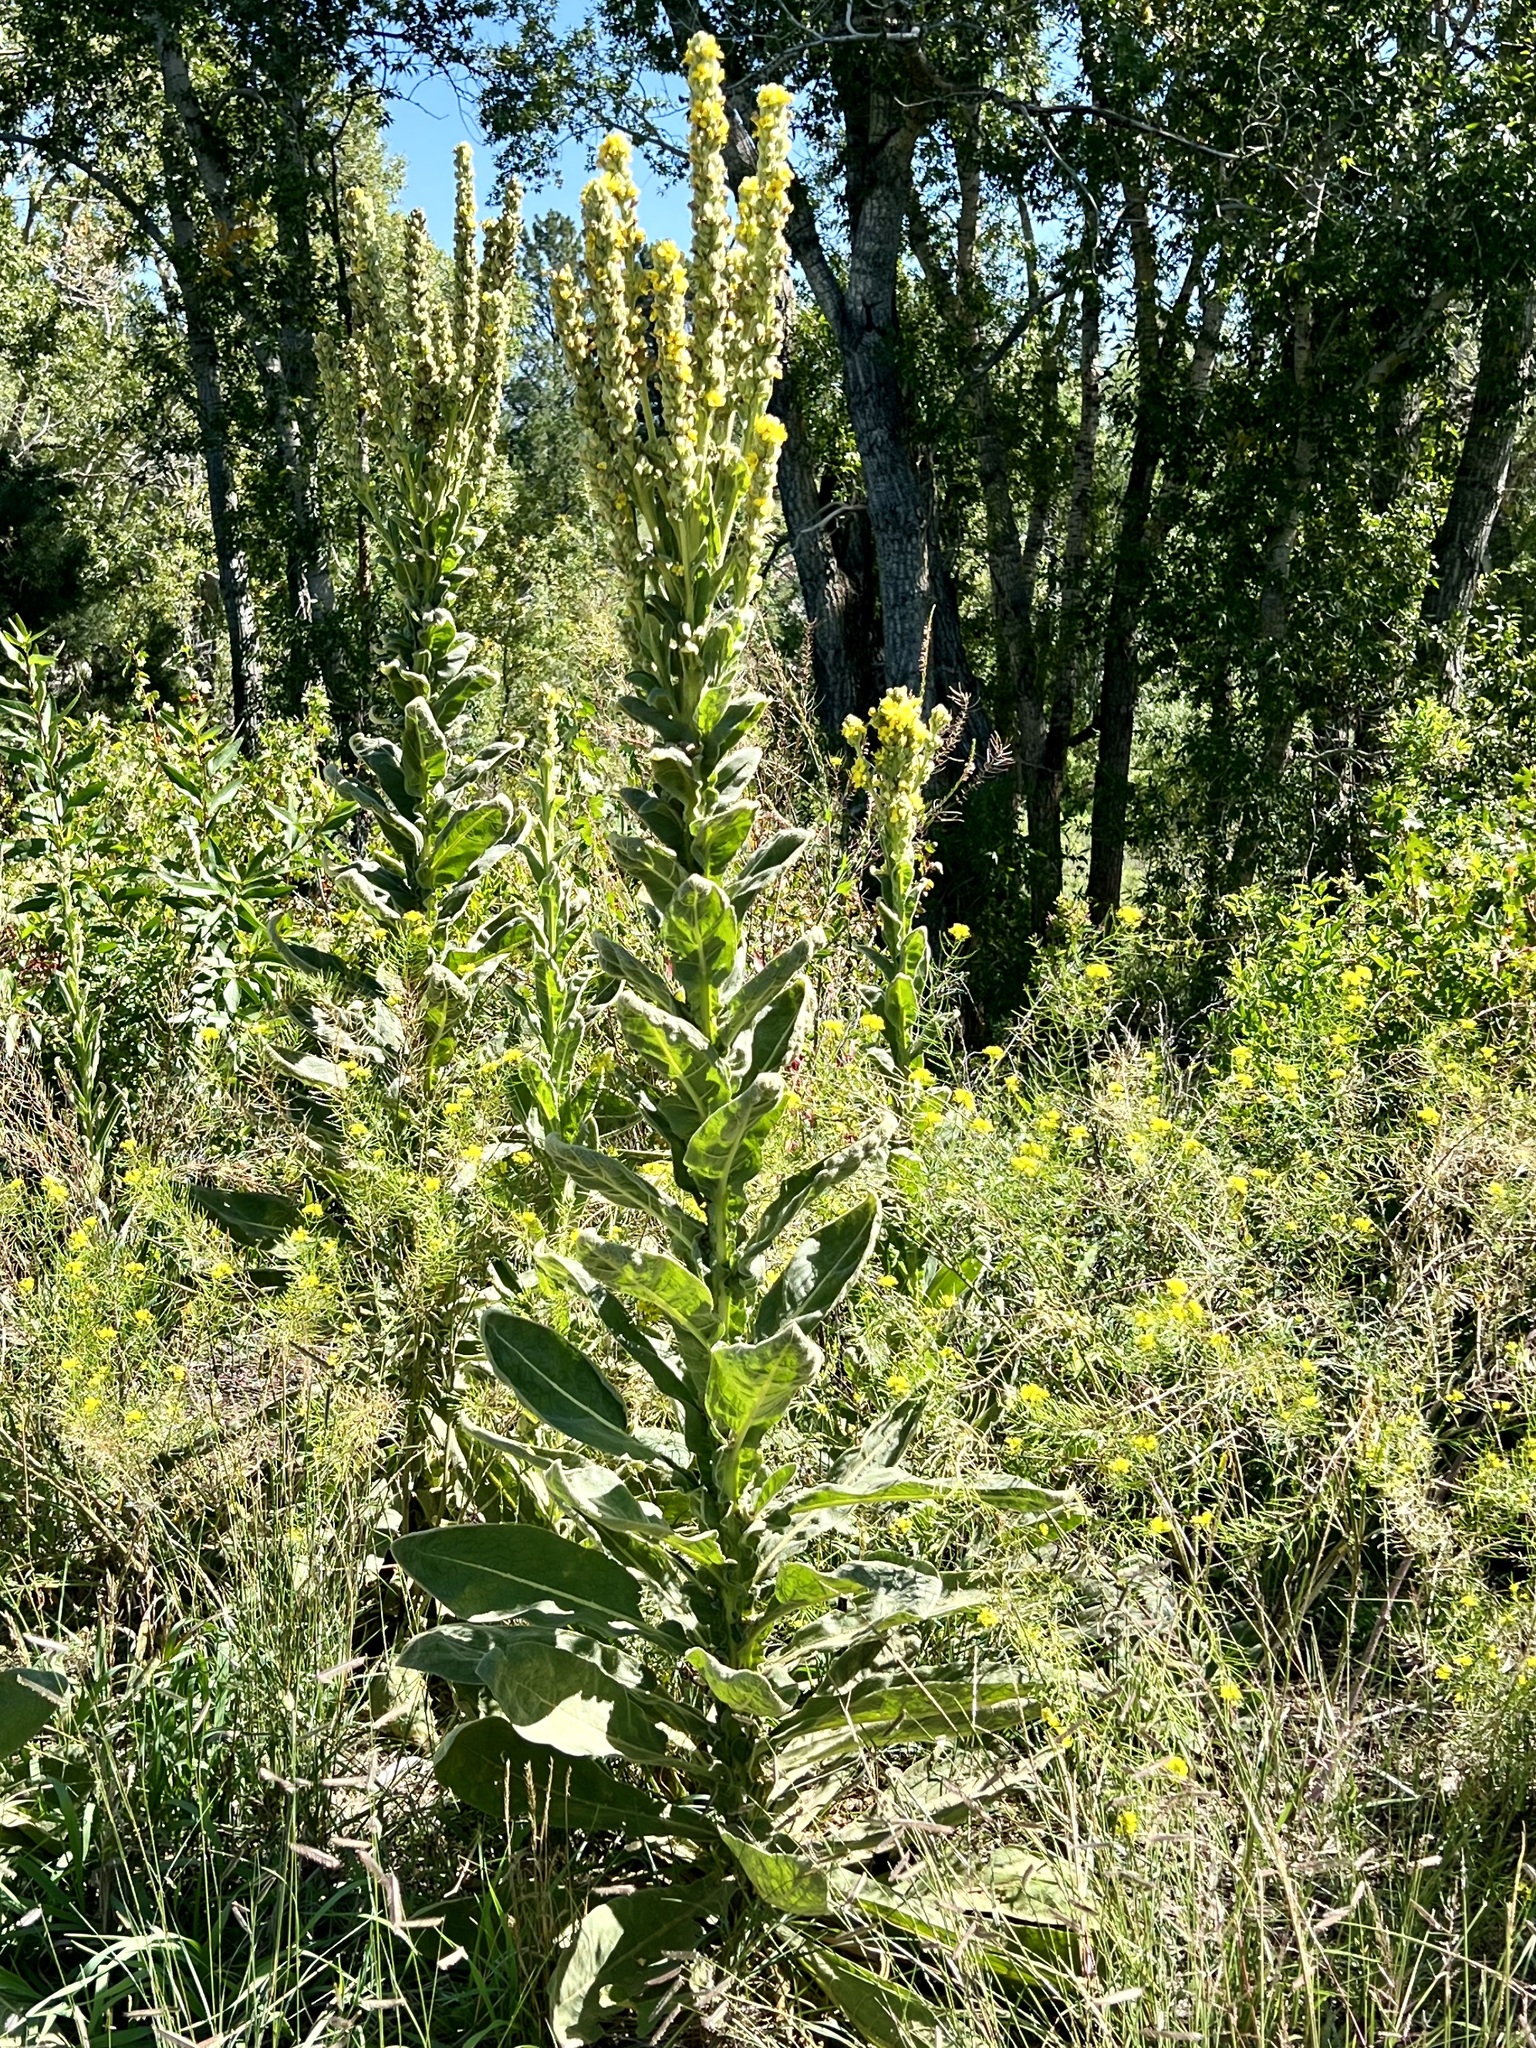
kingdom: Plantae
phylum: Tracheophyta
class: Magnoliopsida
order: Lamiales
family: Scrophulariaceae
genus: Verbascum
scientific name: Verbascum thapsus
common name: Common mullein
